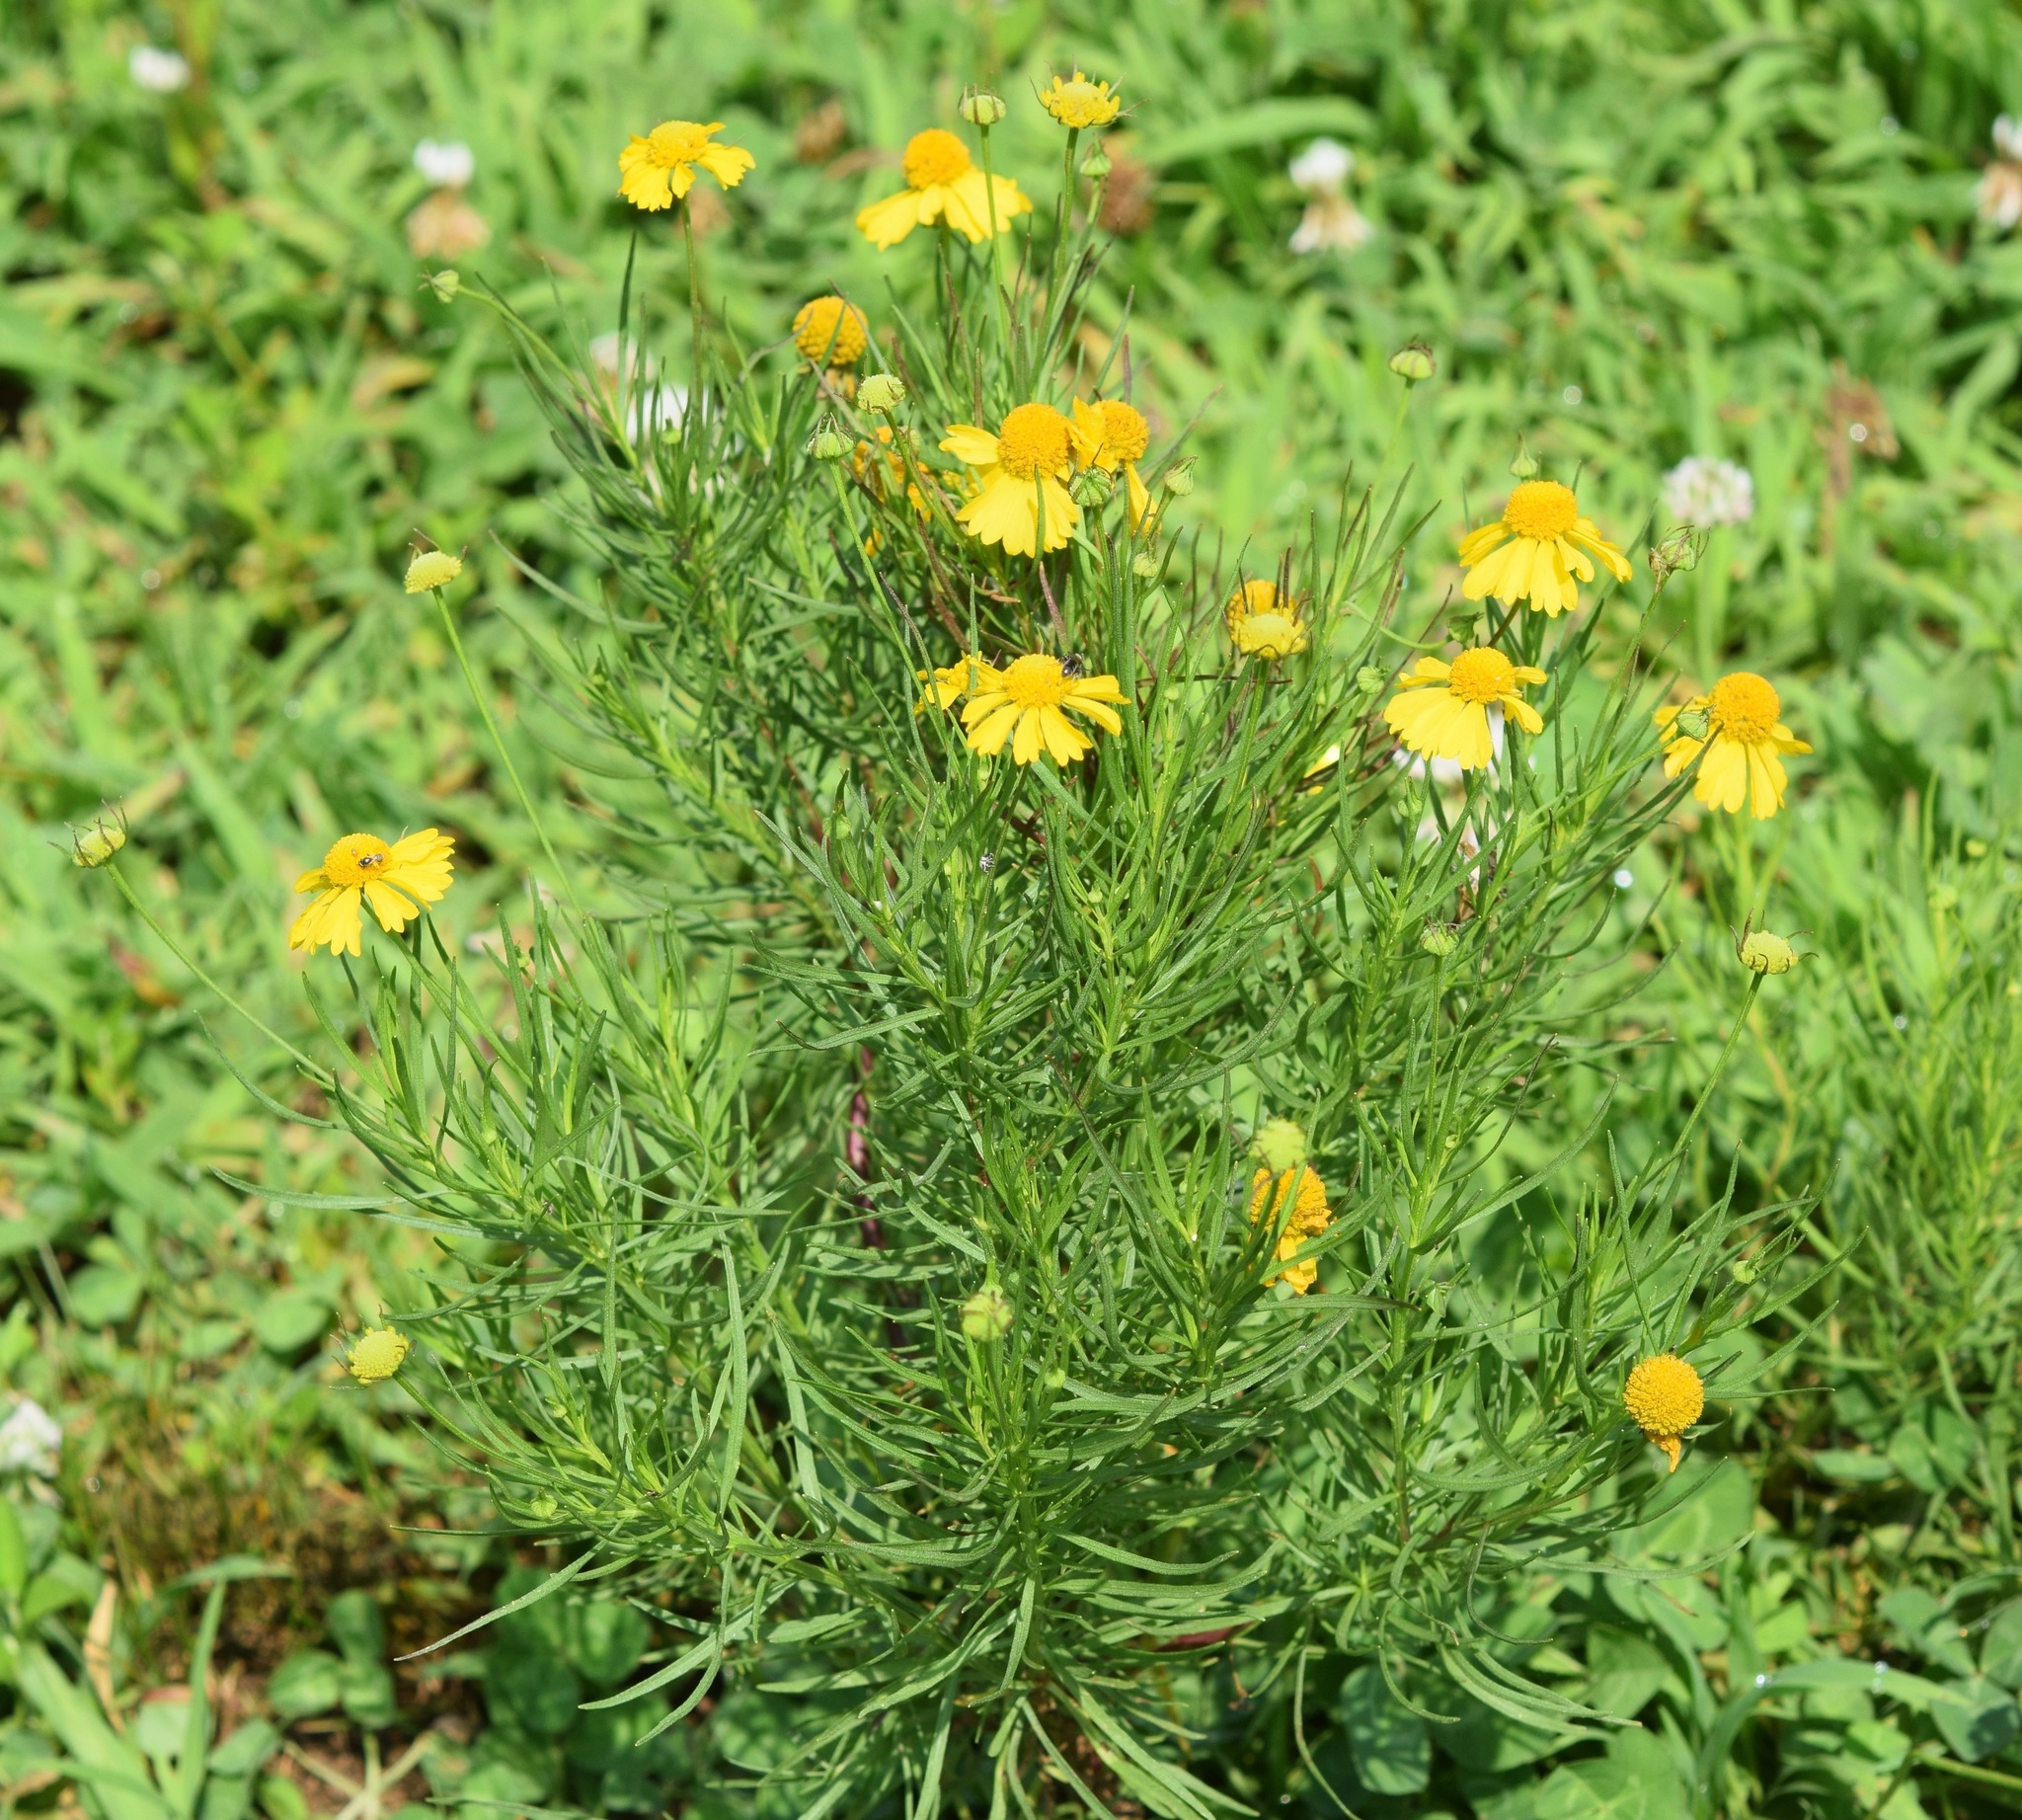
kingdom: Plantae
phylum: Tracheophyta
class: Magnoliopsida
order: Asterales
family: Asteraceae
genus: Helenium
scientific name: Helenium amarum
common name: Bitter sneezeweed
